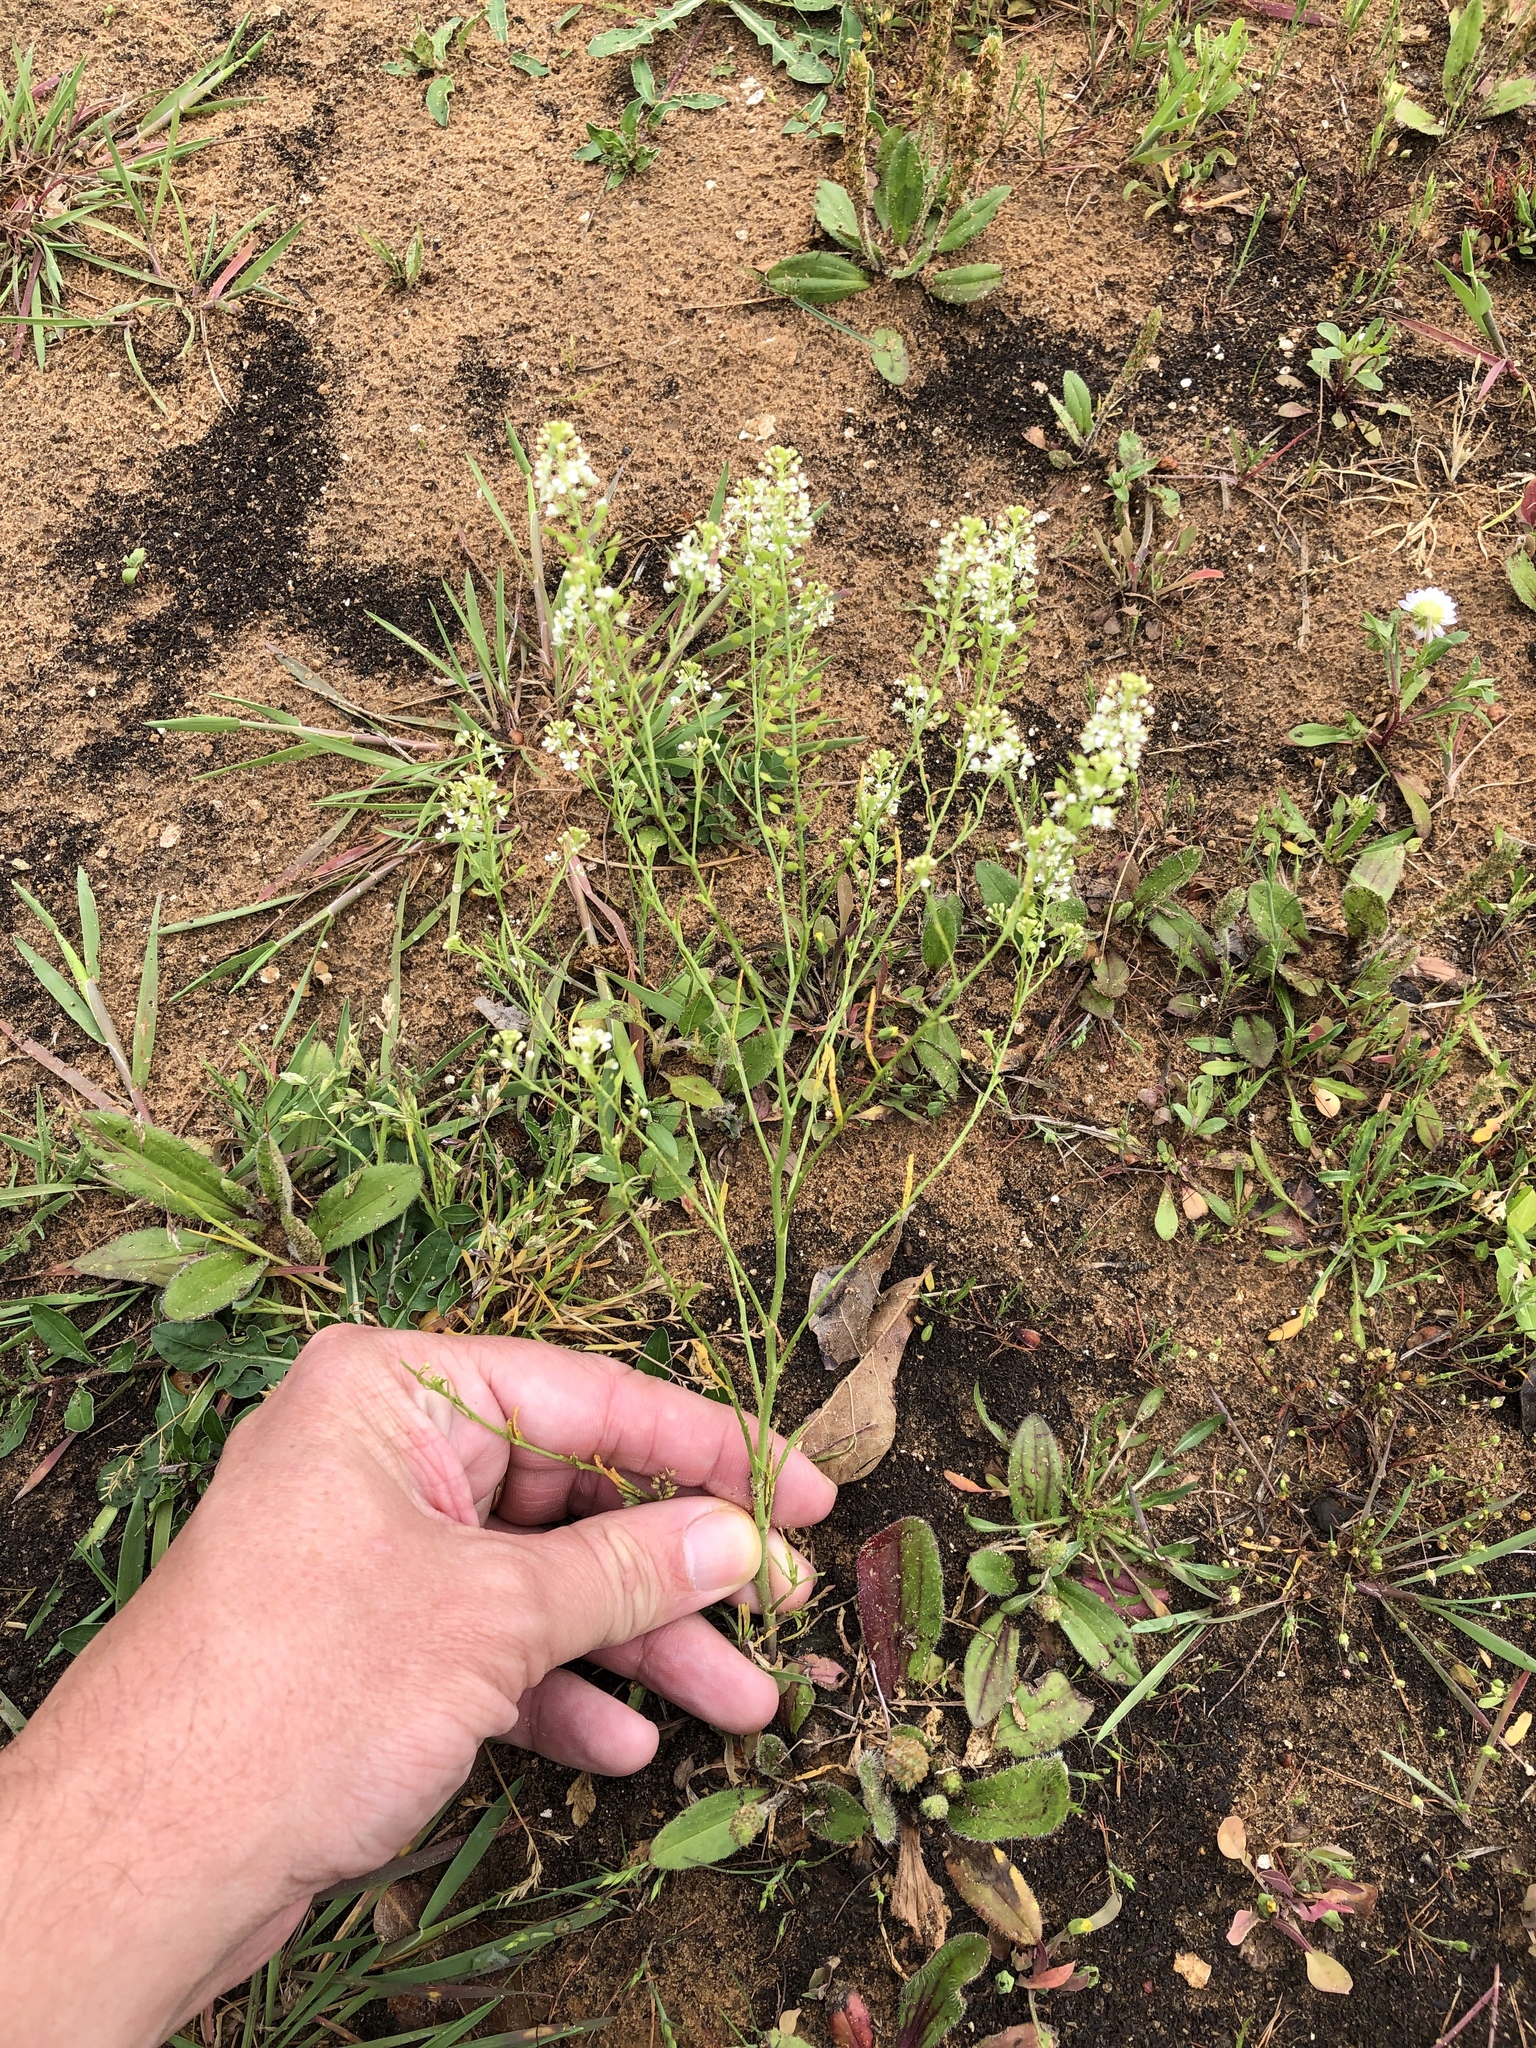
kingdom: Plantae
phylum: Tracheophyta
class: Magnoliopsida
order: Brassicales
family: Brassicaceae
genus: Lepidium
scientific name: Lepidium virginicum
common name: Least pepperwort
